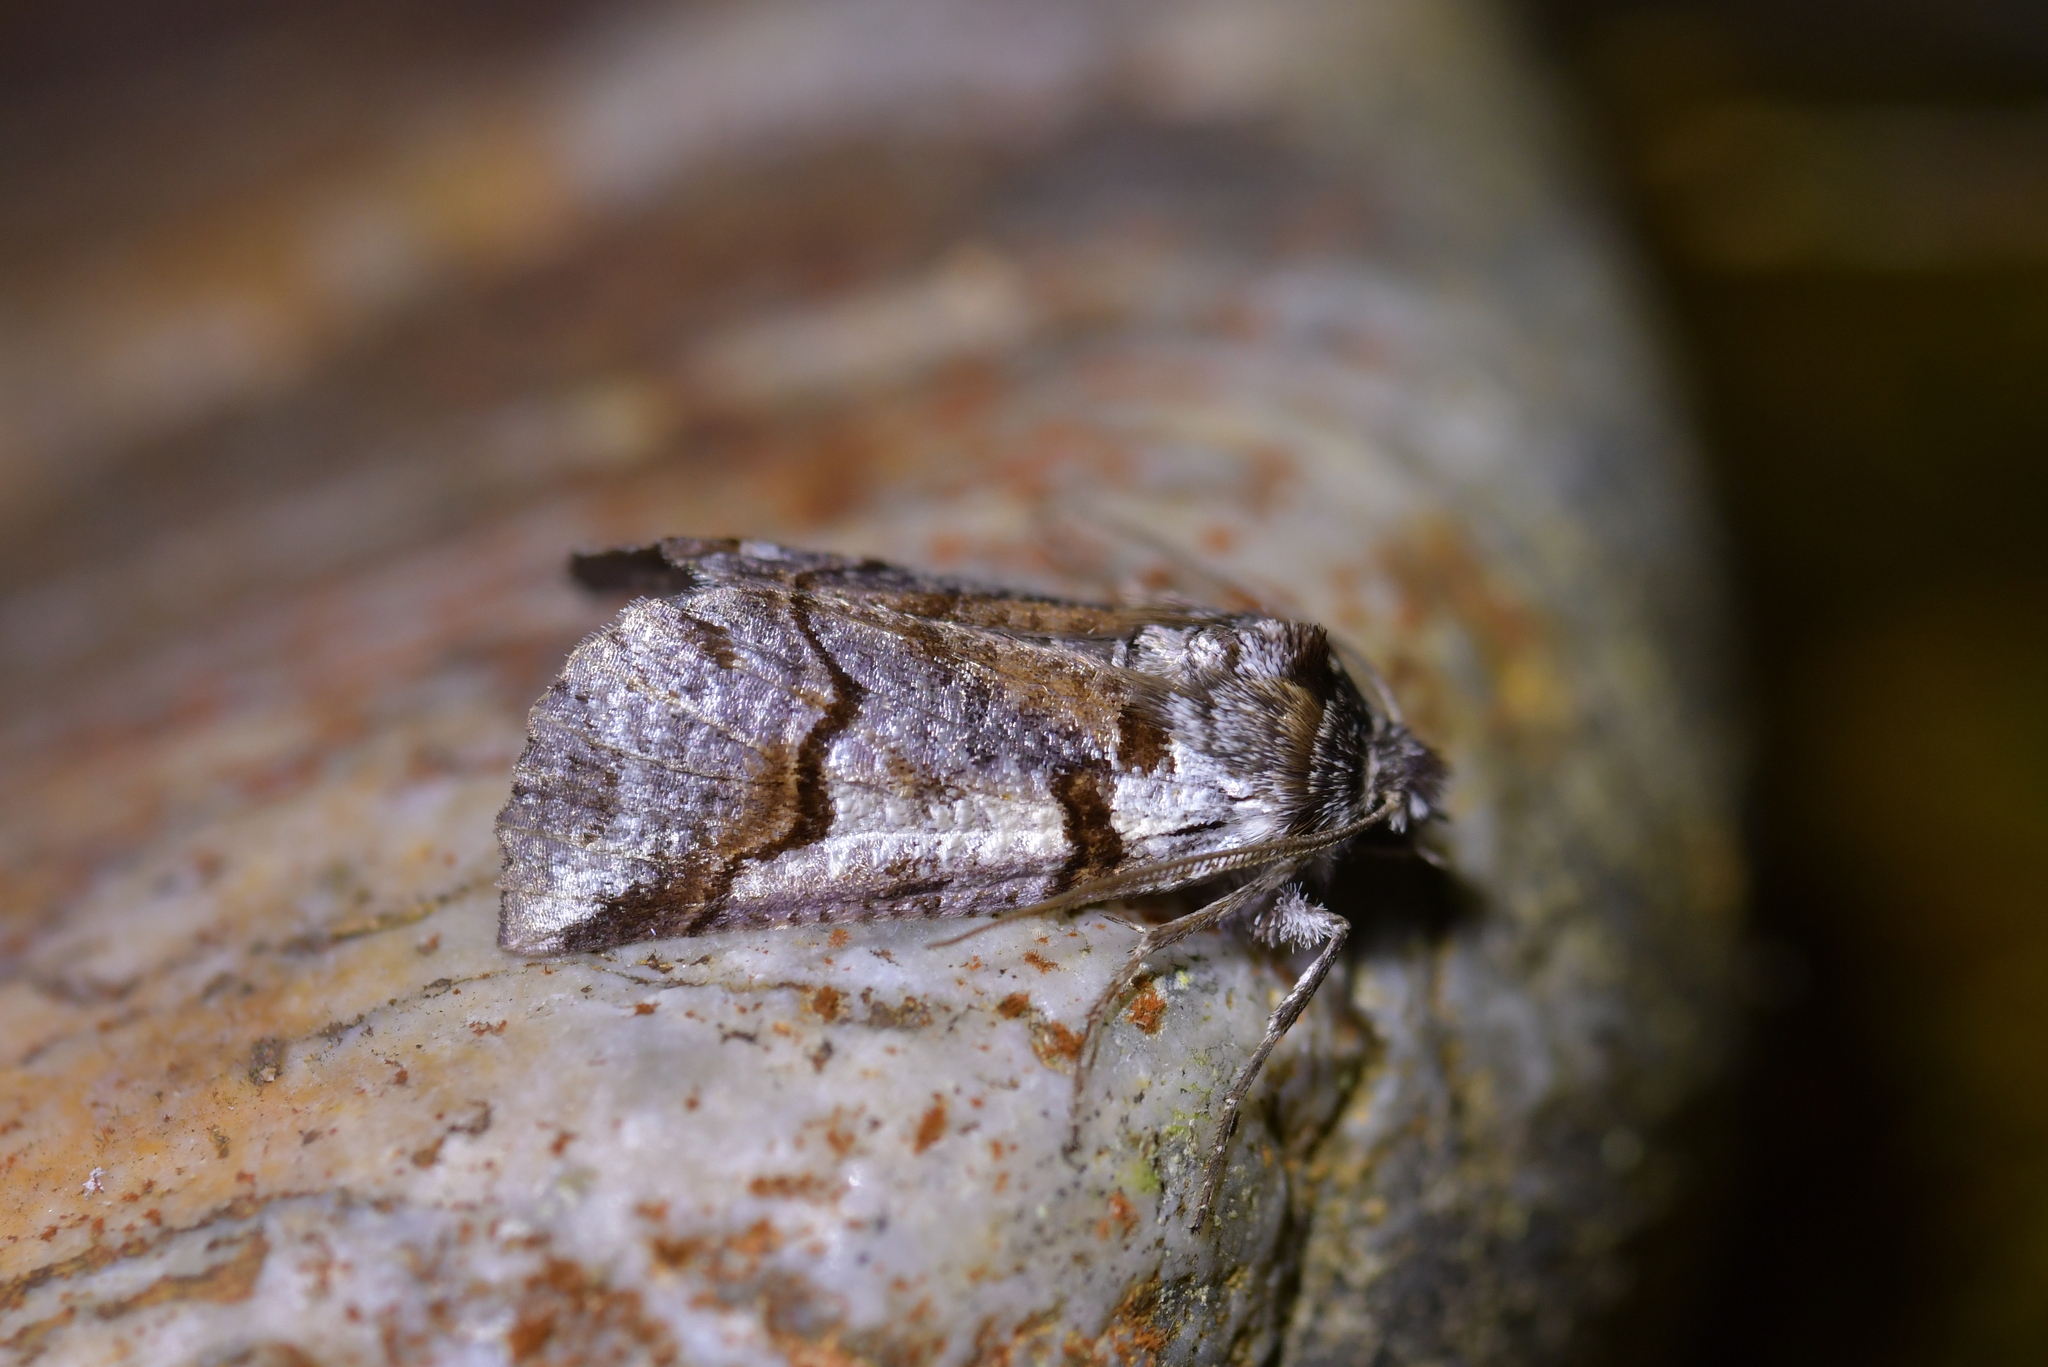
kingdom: Animalia
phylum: Arthropoda
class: Insecta
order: Lepidoptera
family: Geometridae
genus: Declana
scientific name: Declana
